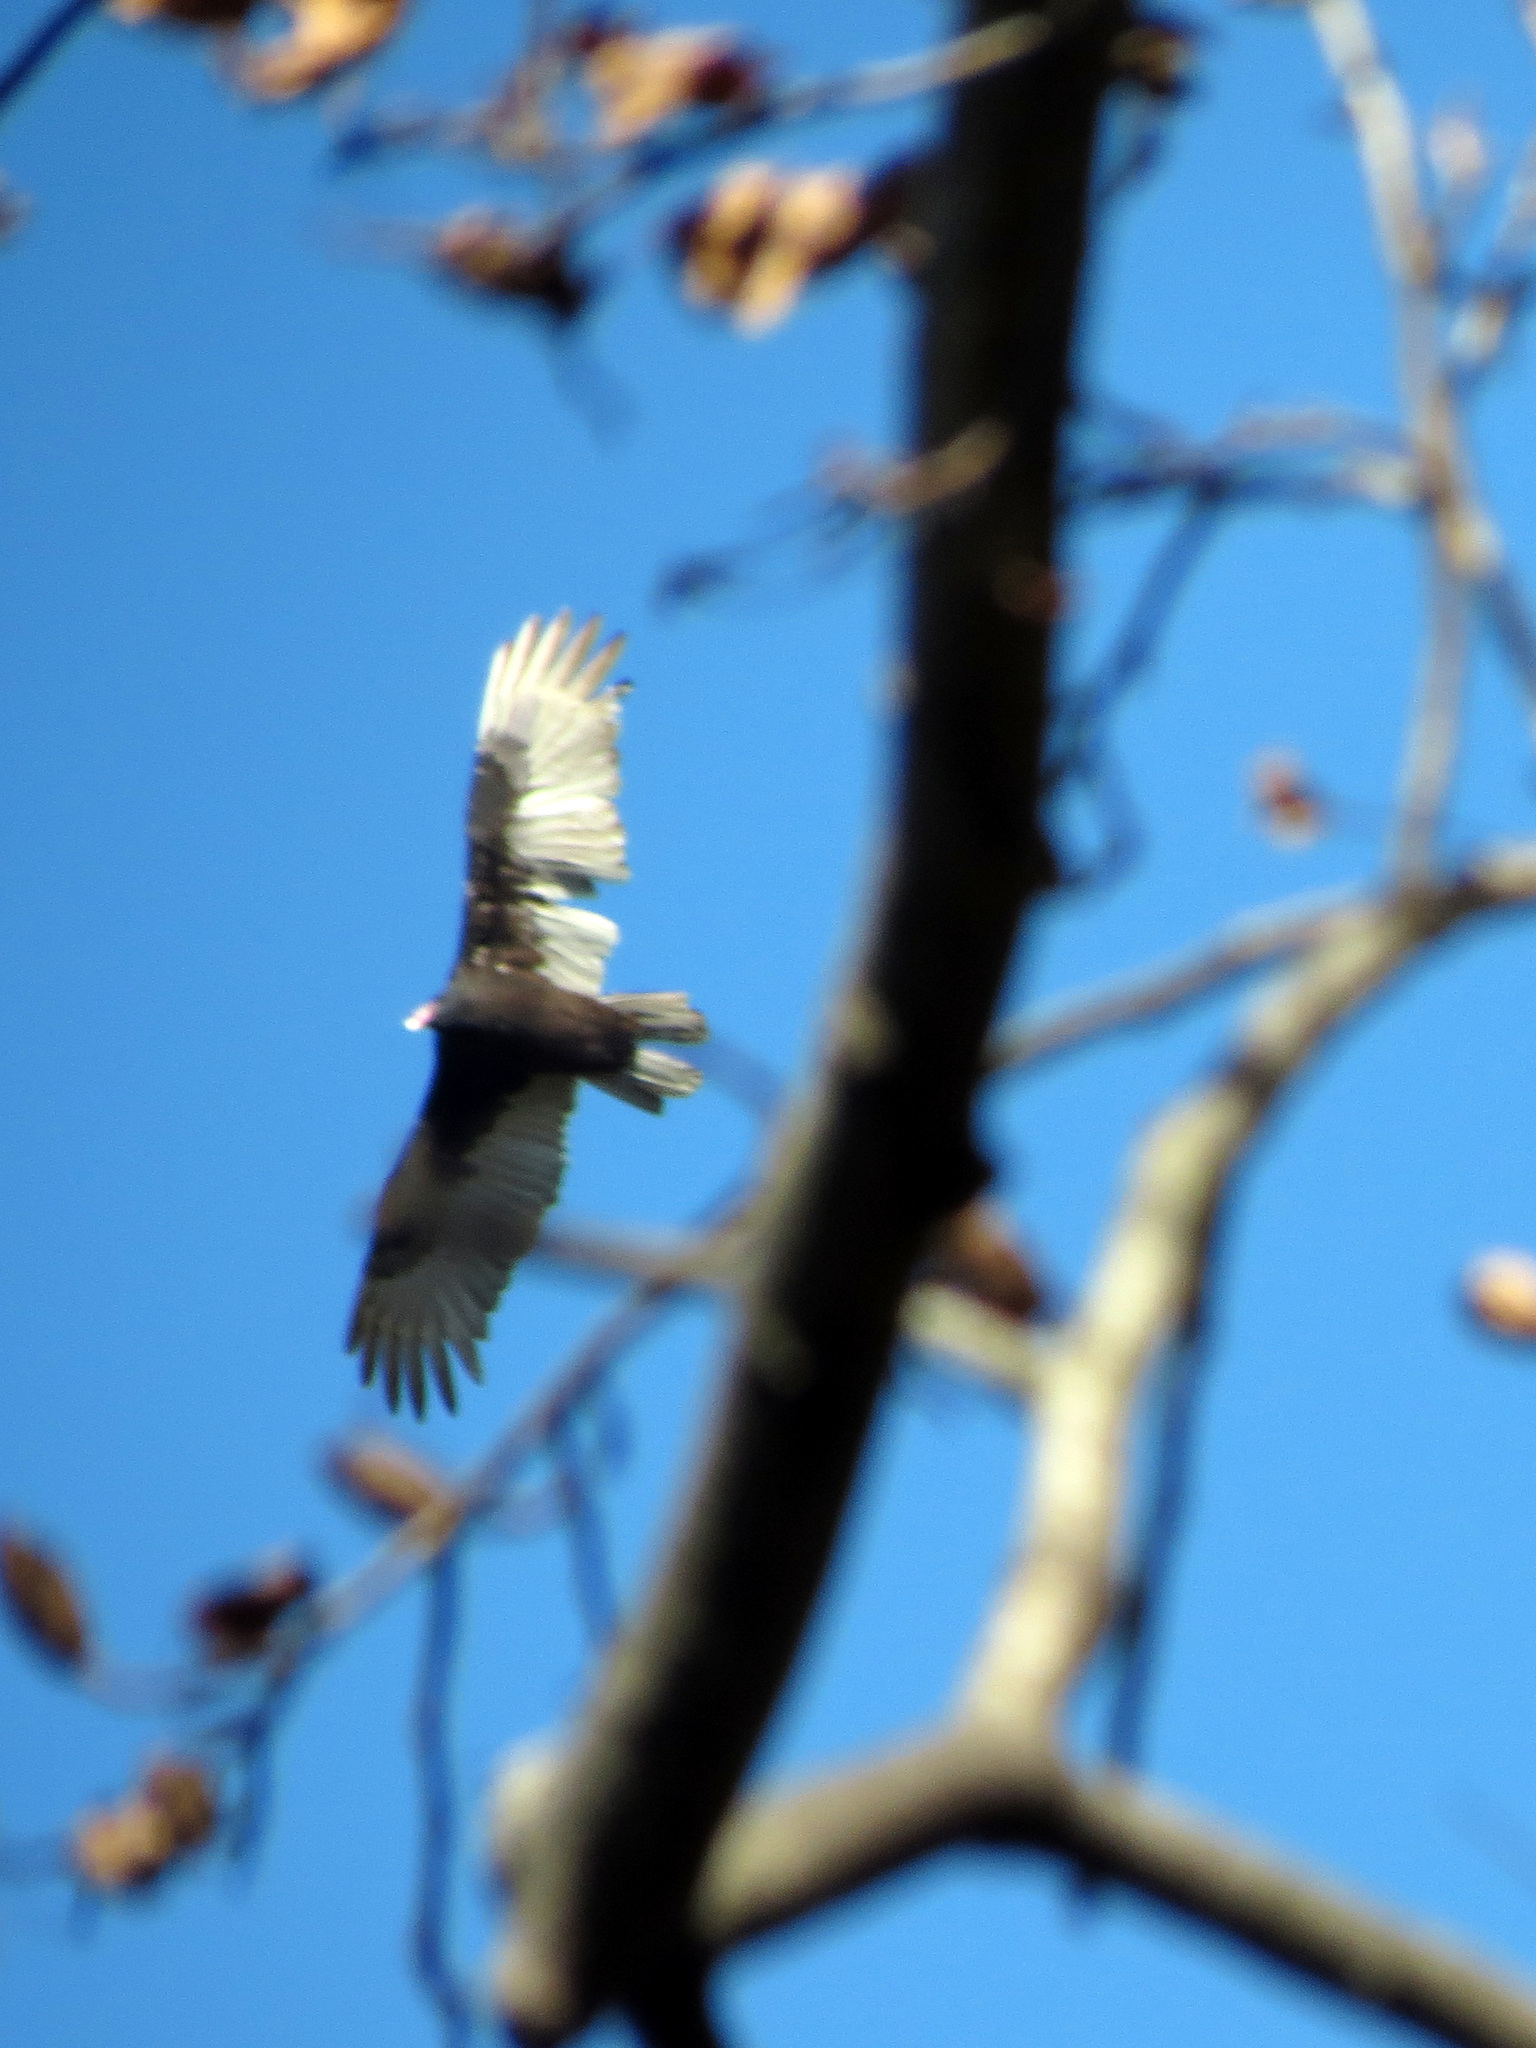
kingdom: Animalia
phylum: Chordata
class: Aves
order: Accipitriformes
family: Cathartidae
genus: Cathartes
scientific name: Cathartes aura
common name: Turkey vulture
